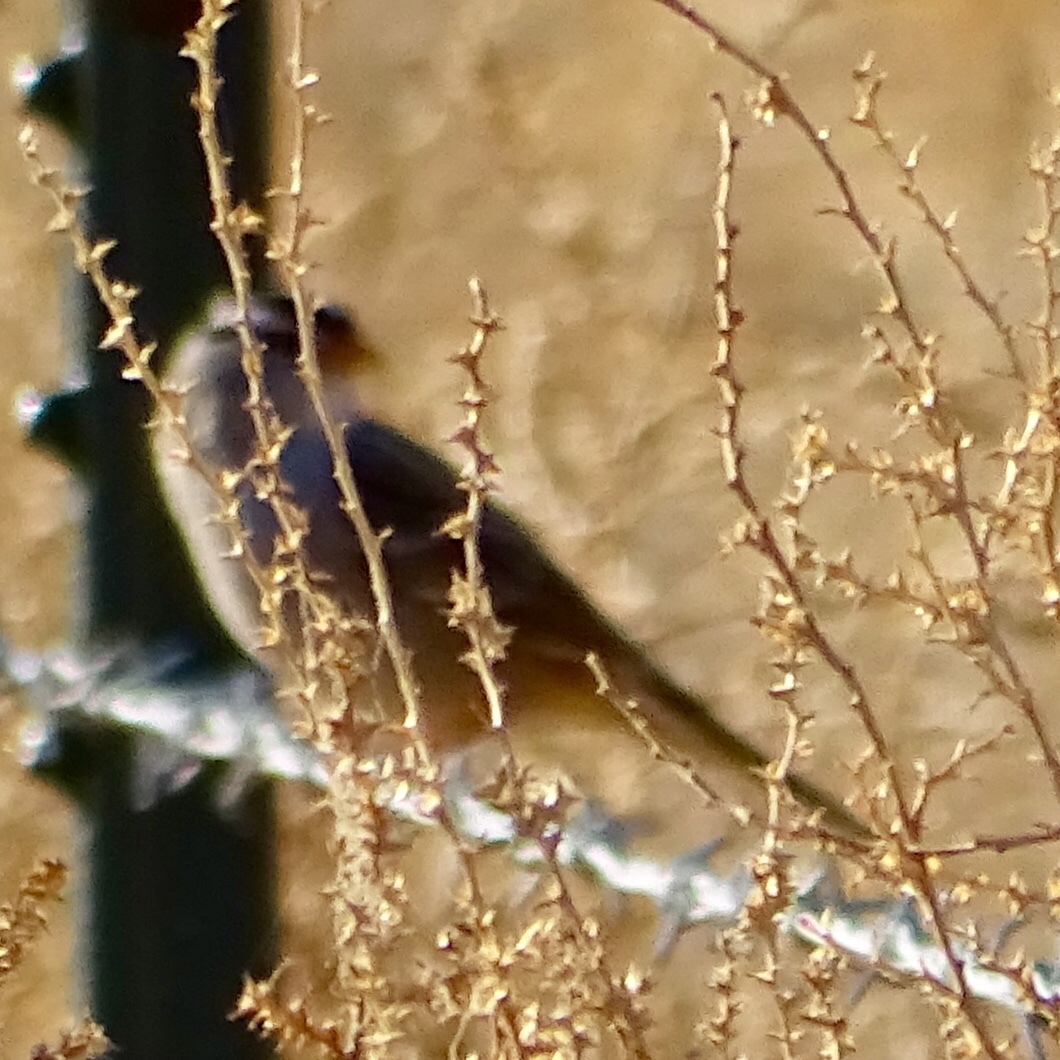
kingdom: Animalia
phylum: Chordata
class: Aves
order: Passeriformes
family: Passerellidae
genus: Zonotrichia
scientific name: Zonotrichia leucophrys
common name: White-crowned sparrow
